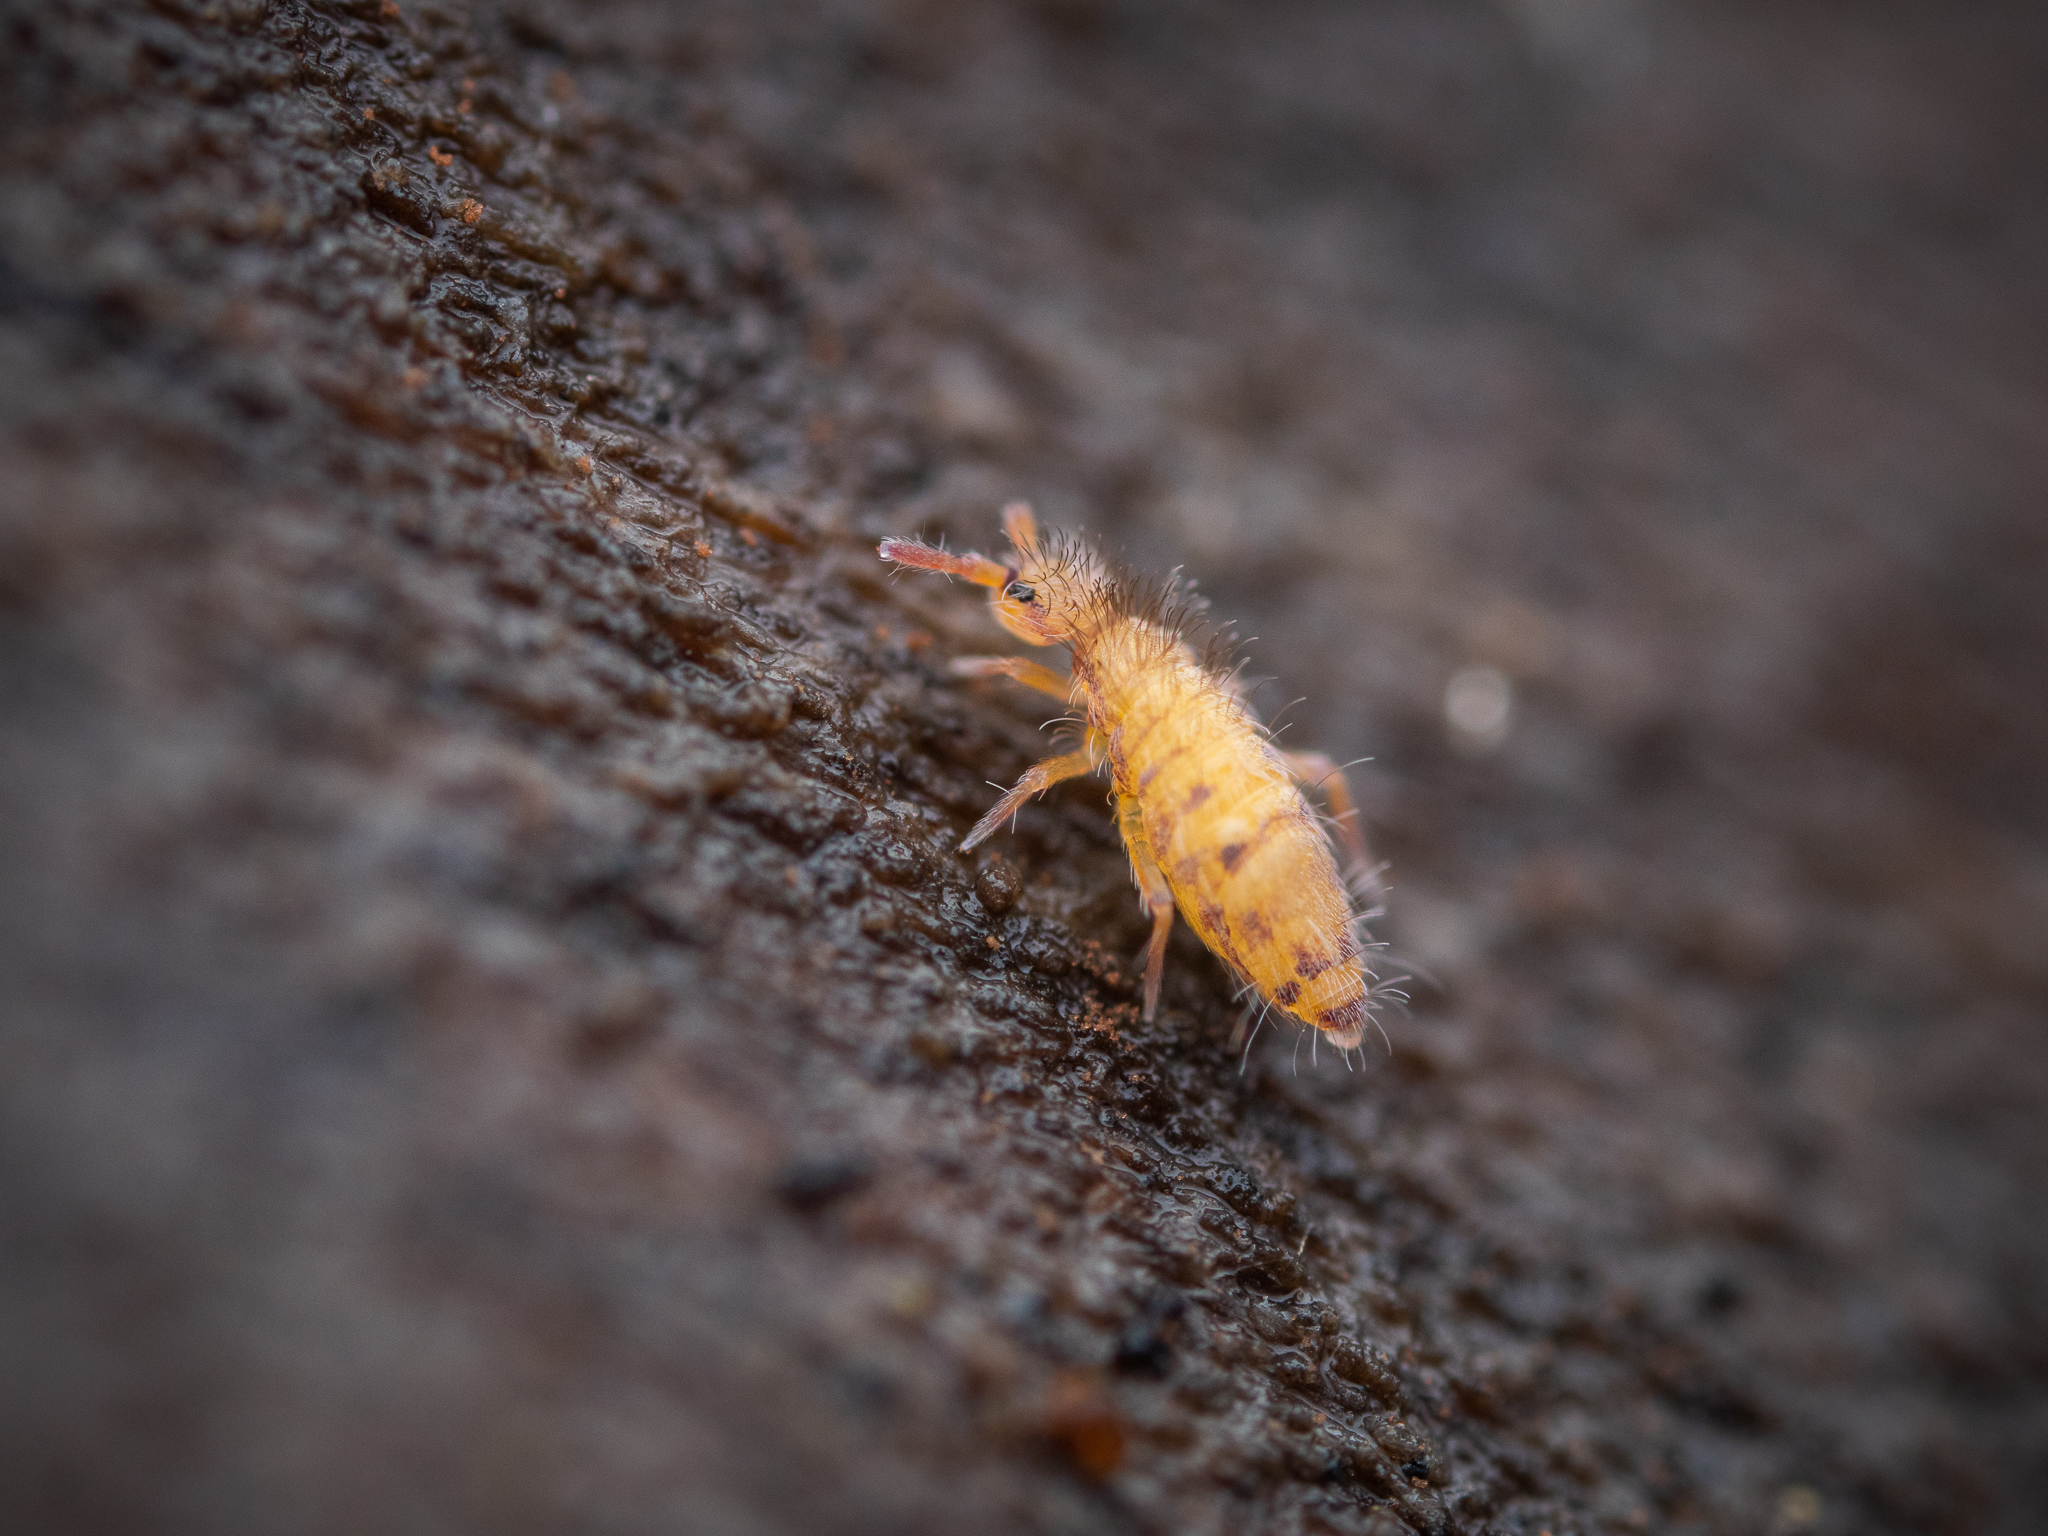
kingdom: Animalia
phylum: Arthropoda
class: Collembola
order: Entomobryomorpha
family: Entomobryidae
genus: Entomobrya
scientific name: Entomobrya multifasciata
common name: Springtail
